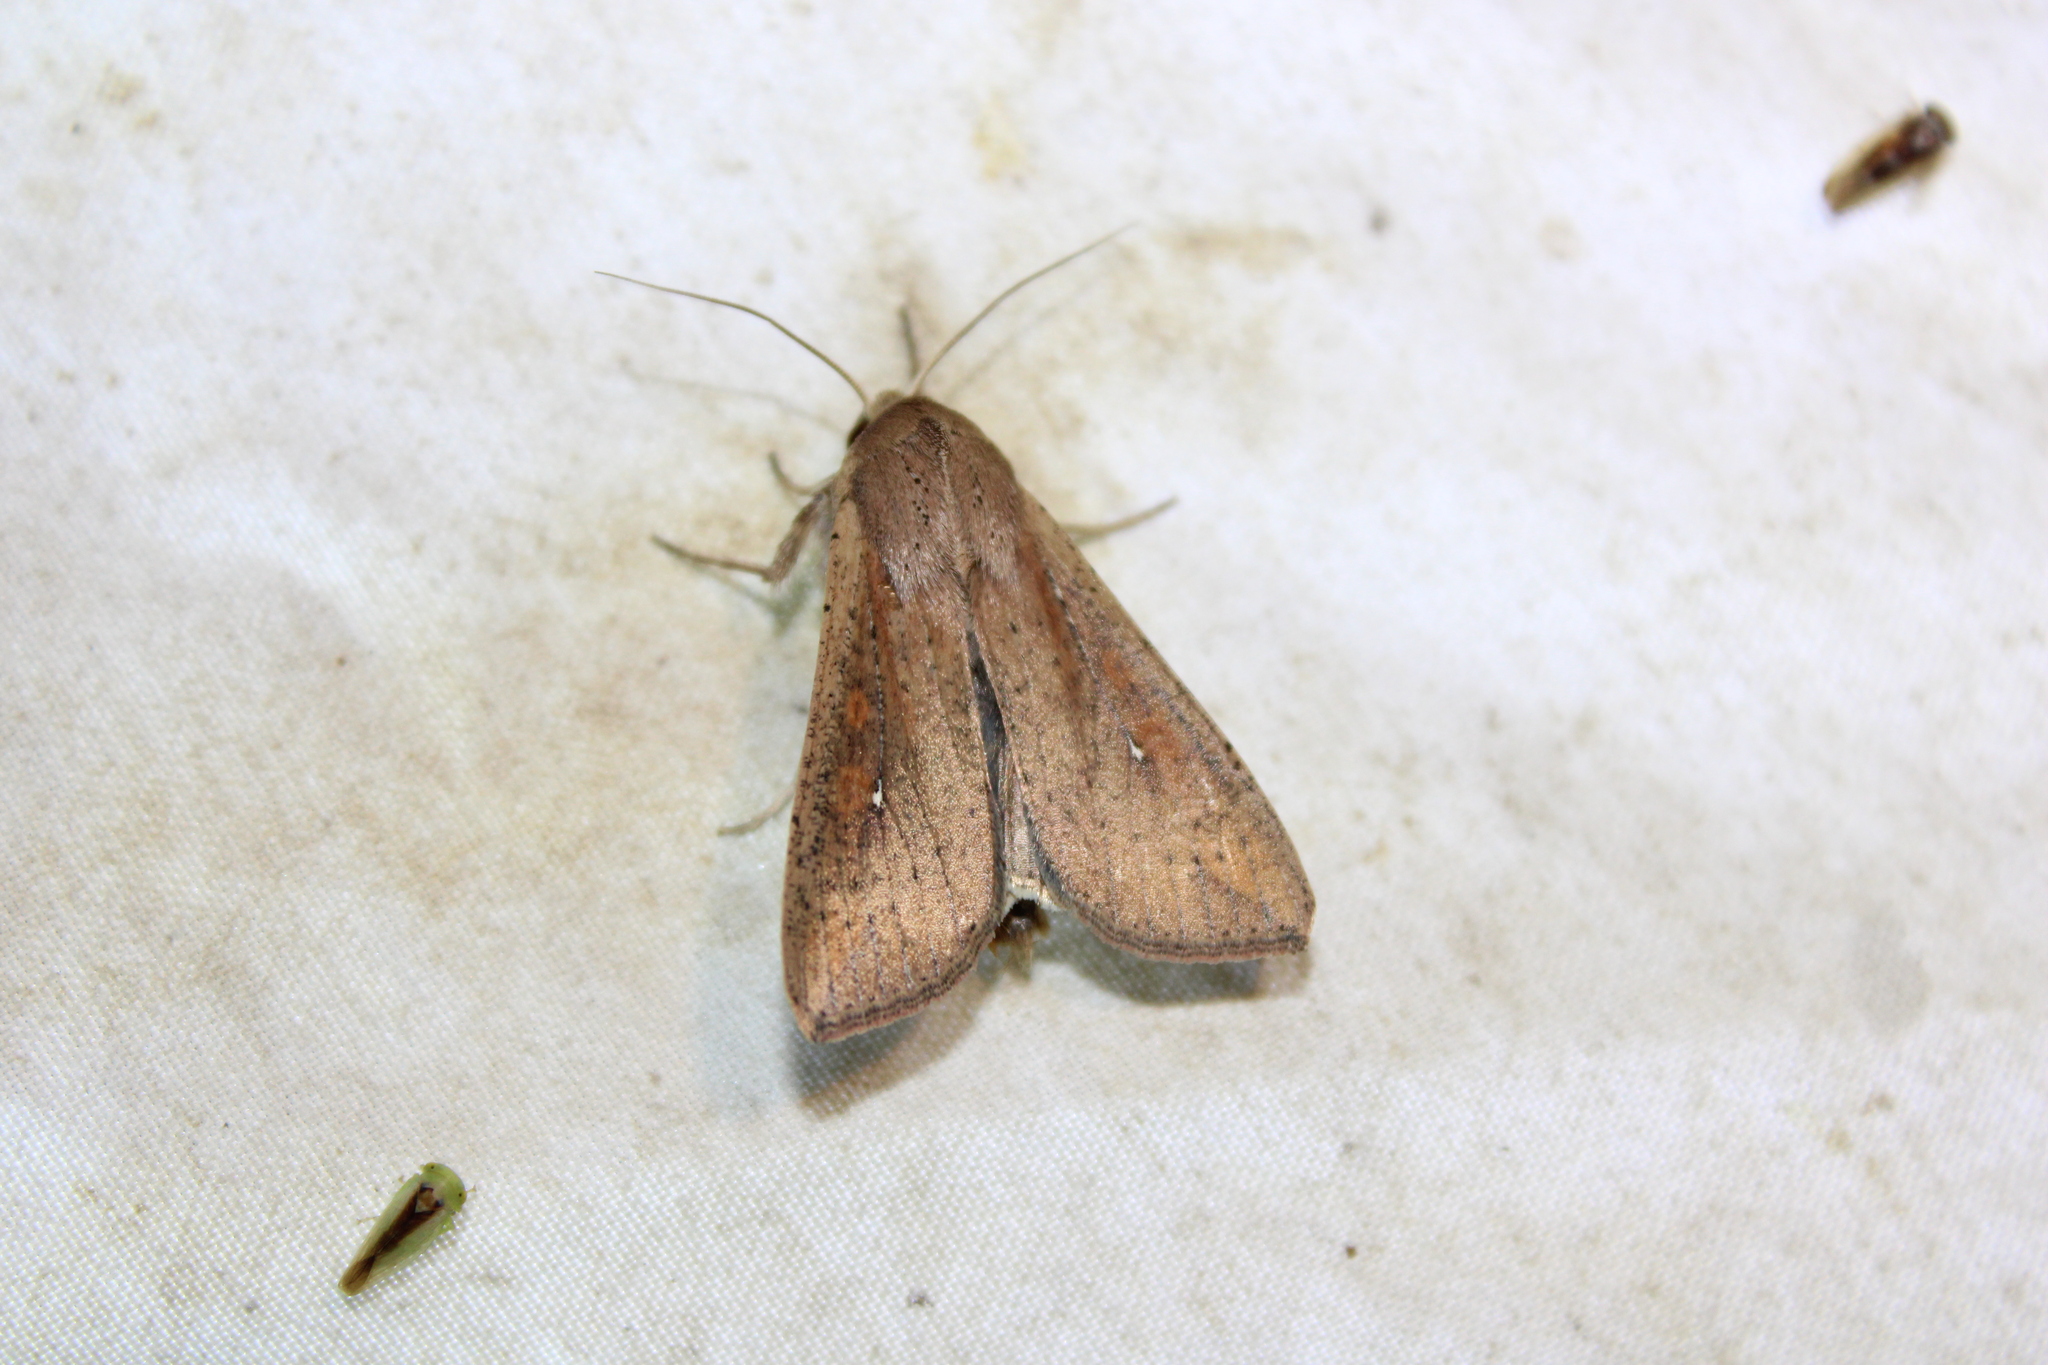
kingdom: Animalia
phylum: Arthropoda
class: Insecta
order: Lepidoptera
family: Noctuidae
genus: Mythimna
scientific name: Mythimna unipuncta
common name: White-speck
